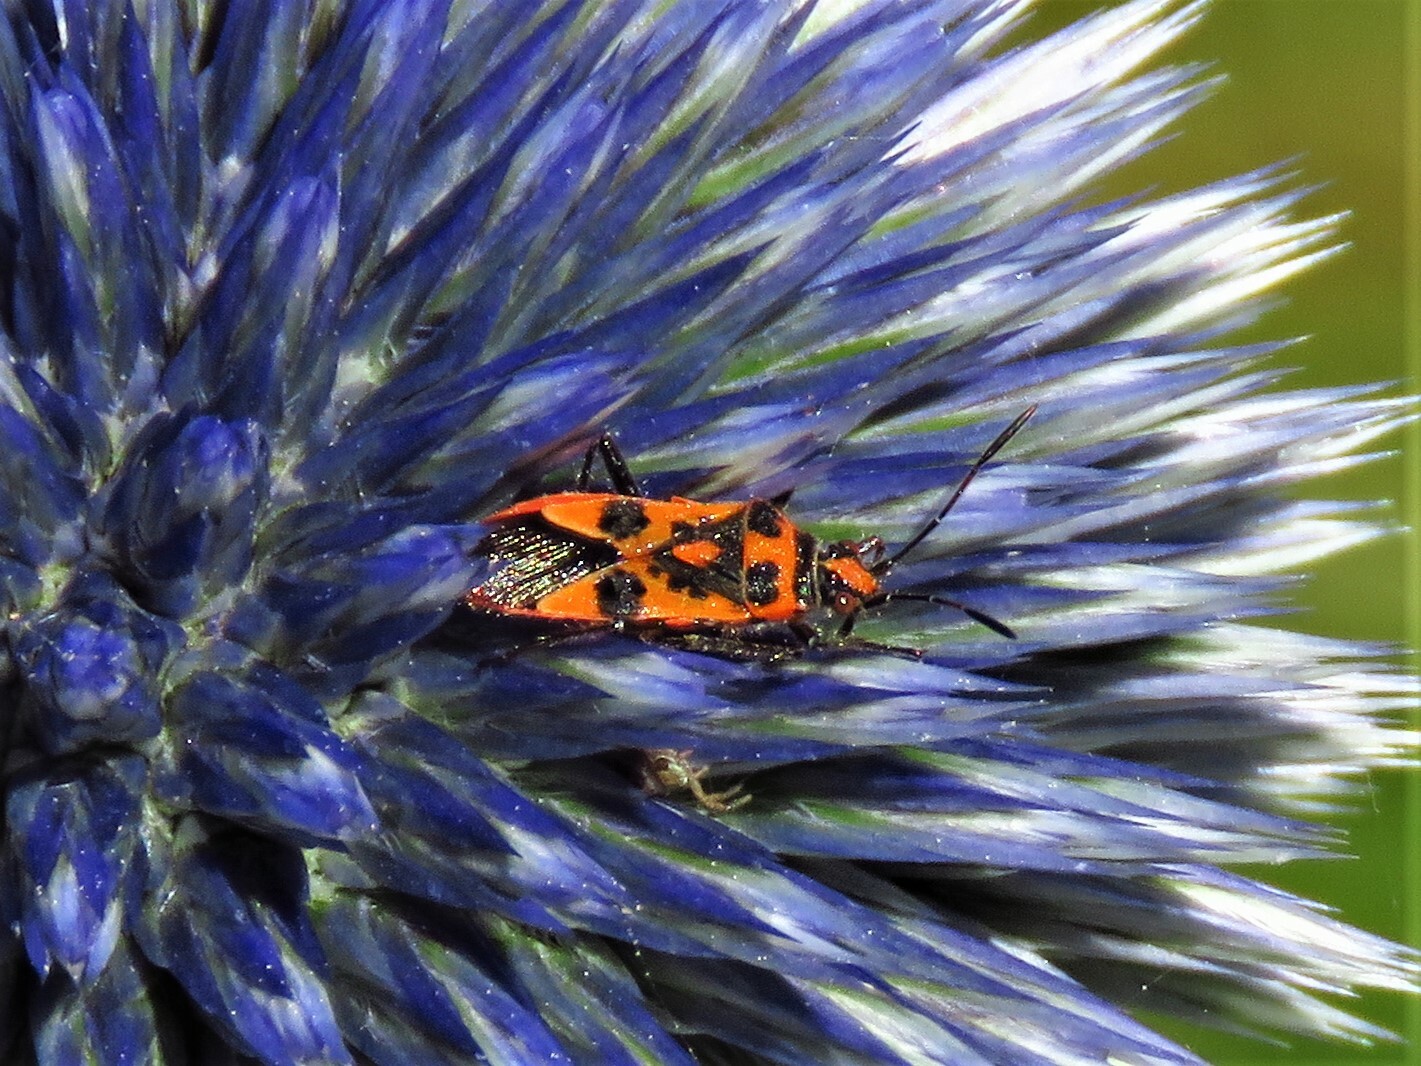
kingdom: Animalia
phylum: Arthropoda
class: Insecta
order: Hemiptera
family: Rhopalidae
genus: Corizus
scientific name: Corizus hyoscyami
